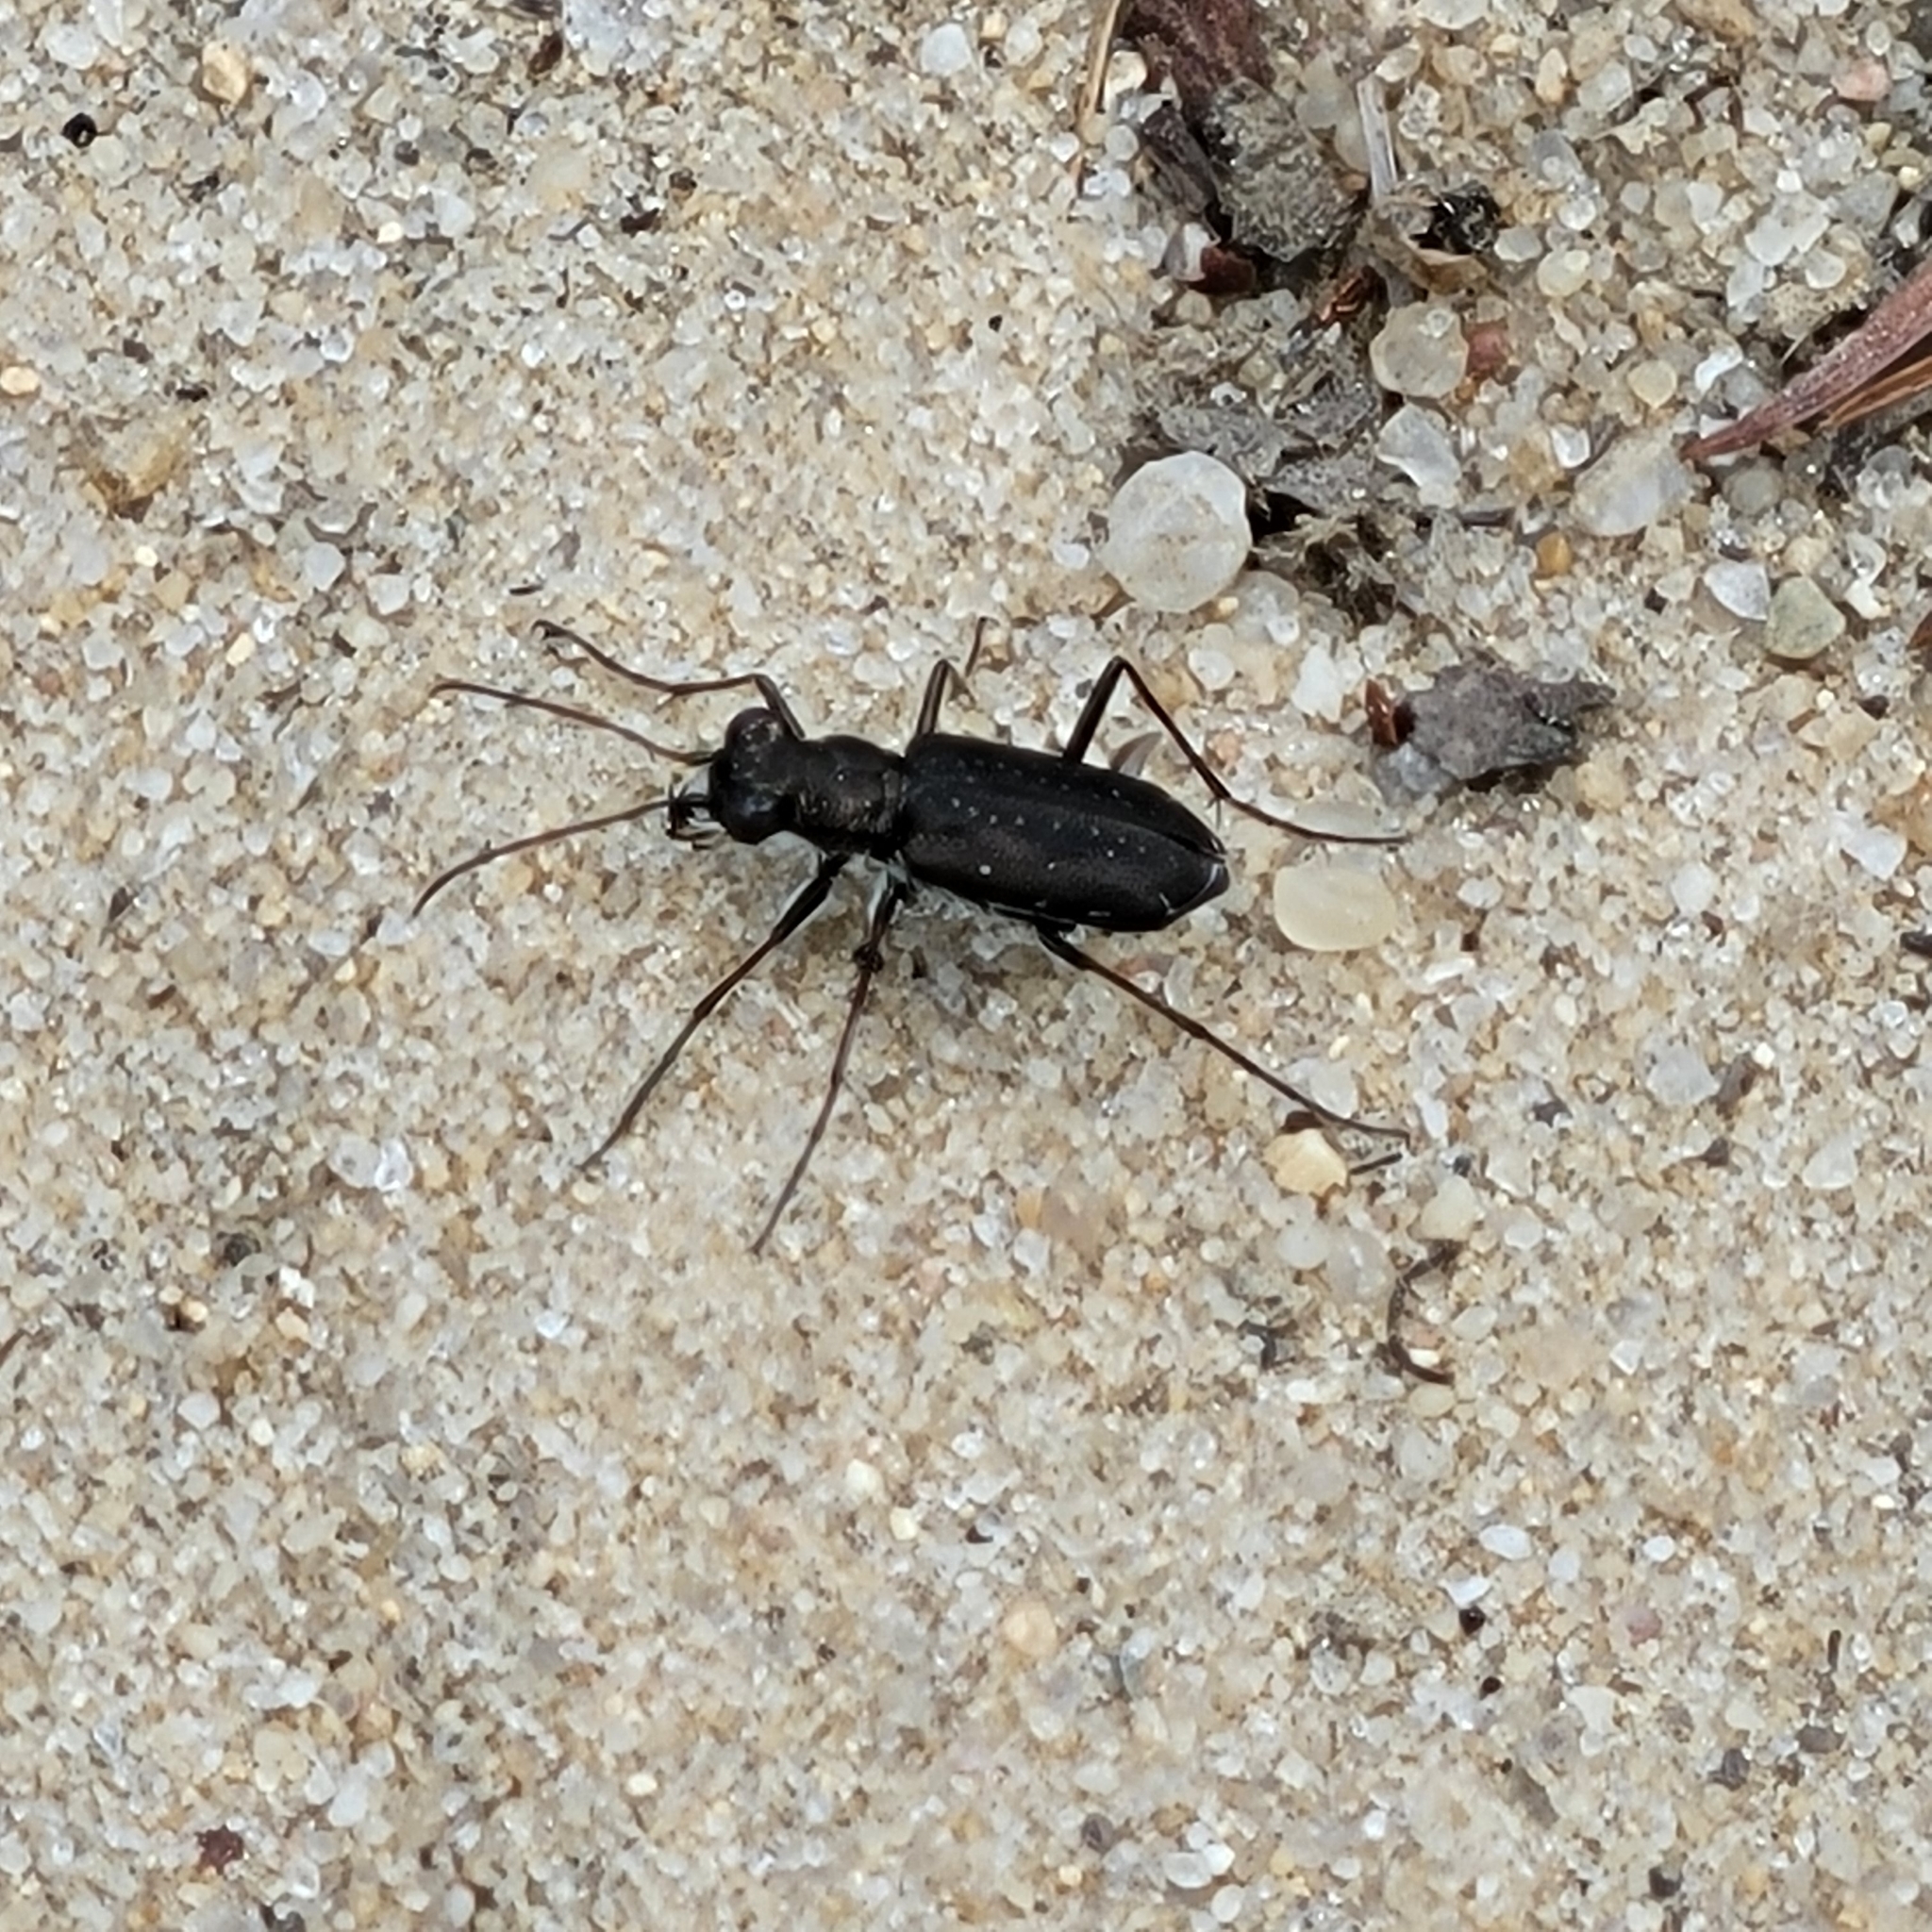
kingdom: Animalia
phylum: Arthropoda
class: Insecta
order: Coleoptera
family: Carabidae
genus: Cicindela
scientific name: Cicindela punctulata
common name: Punctured tiger beetle
